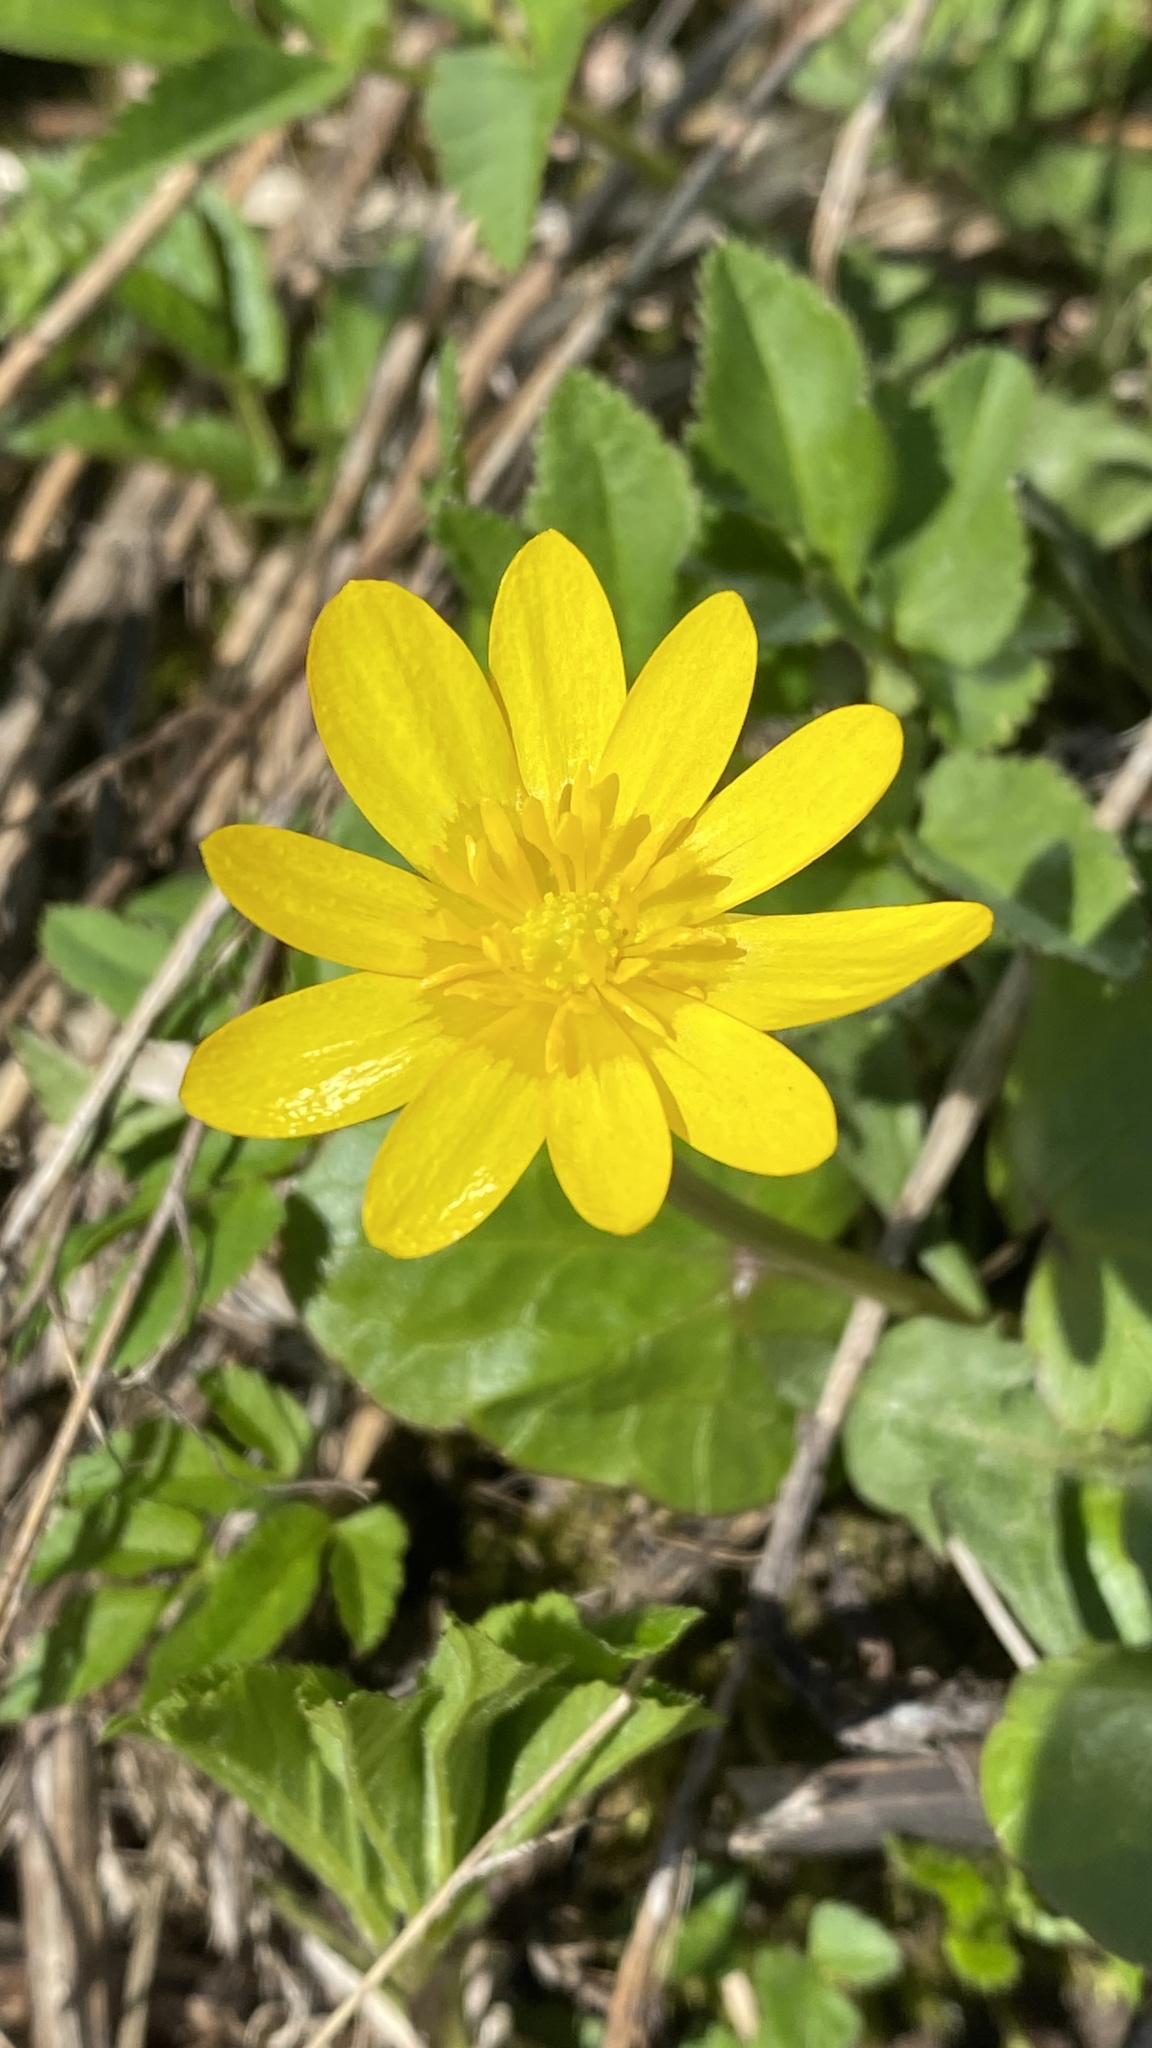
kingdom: Plantae
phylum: Tracheophyta
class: Magnoliopsida
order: Ranunculales
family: Ranunculaceae
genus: Ficaria
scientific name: Ficaria verna
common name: Lesser celandine
